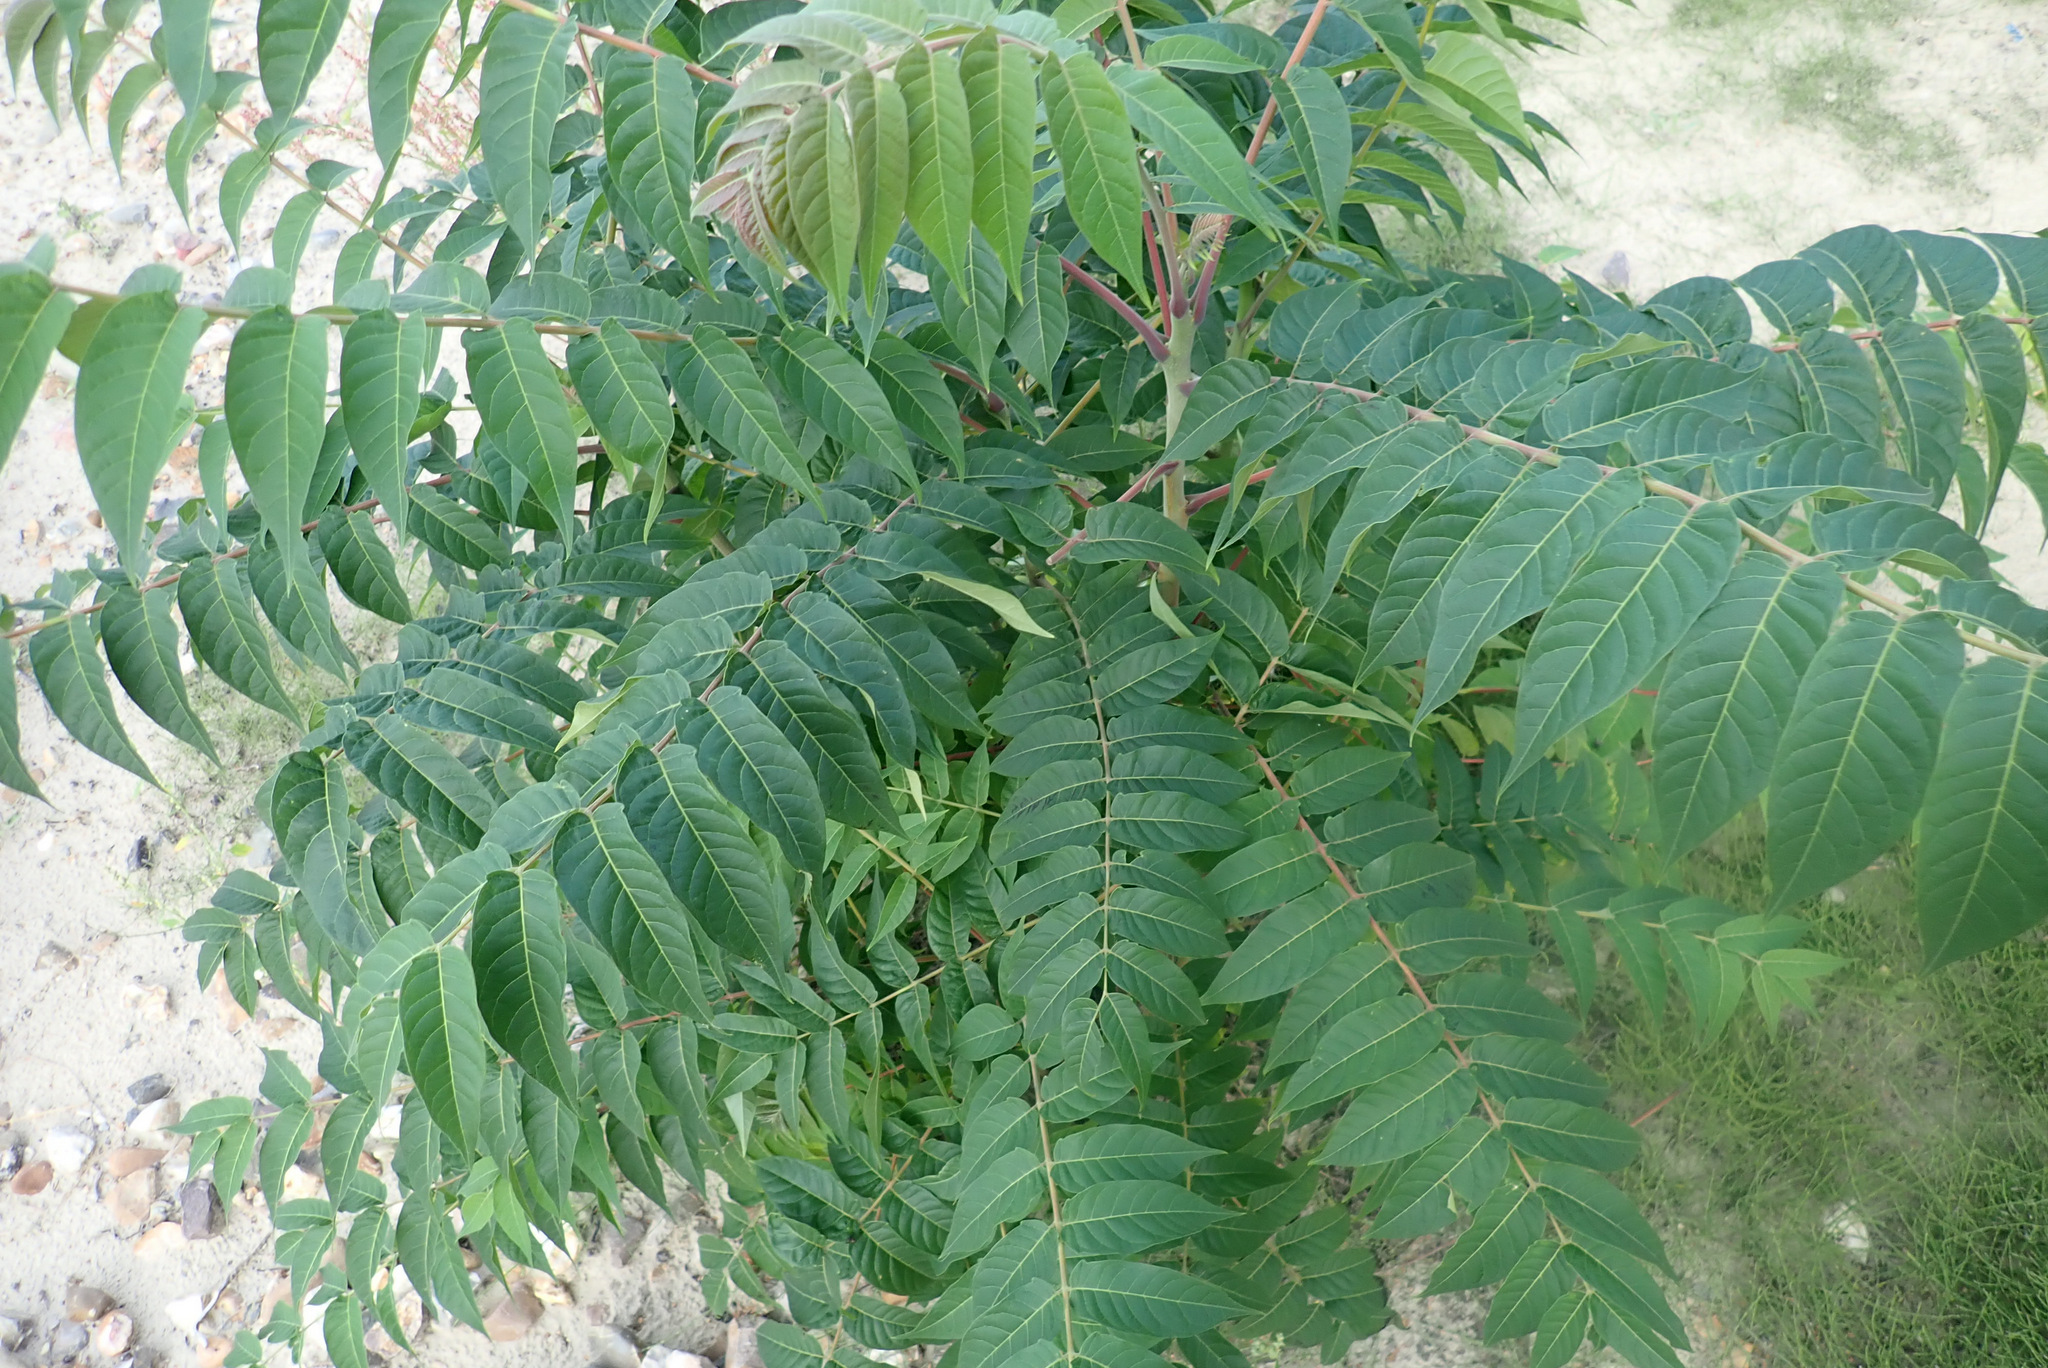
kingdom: Plantae
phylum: Tracheophyta
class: Magnoliopsida
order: Sapindales
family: Simaroubaceae
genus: Ailanthus
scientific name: Ailanthus altissima
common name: Tree-of-heaven
